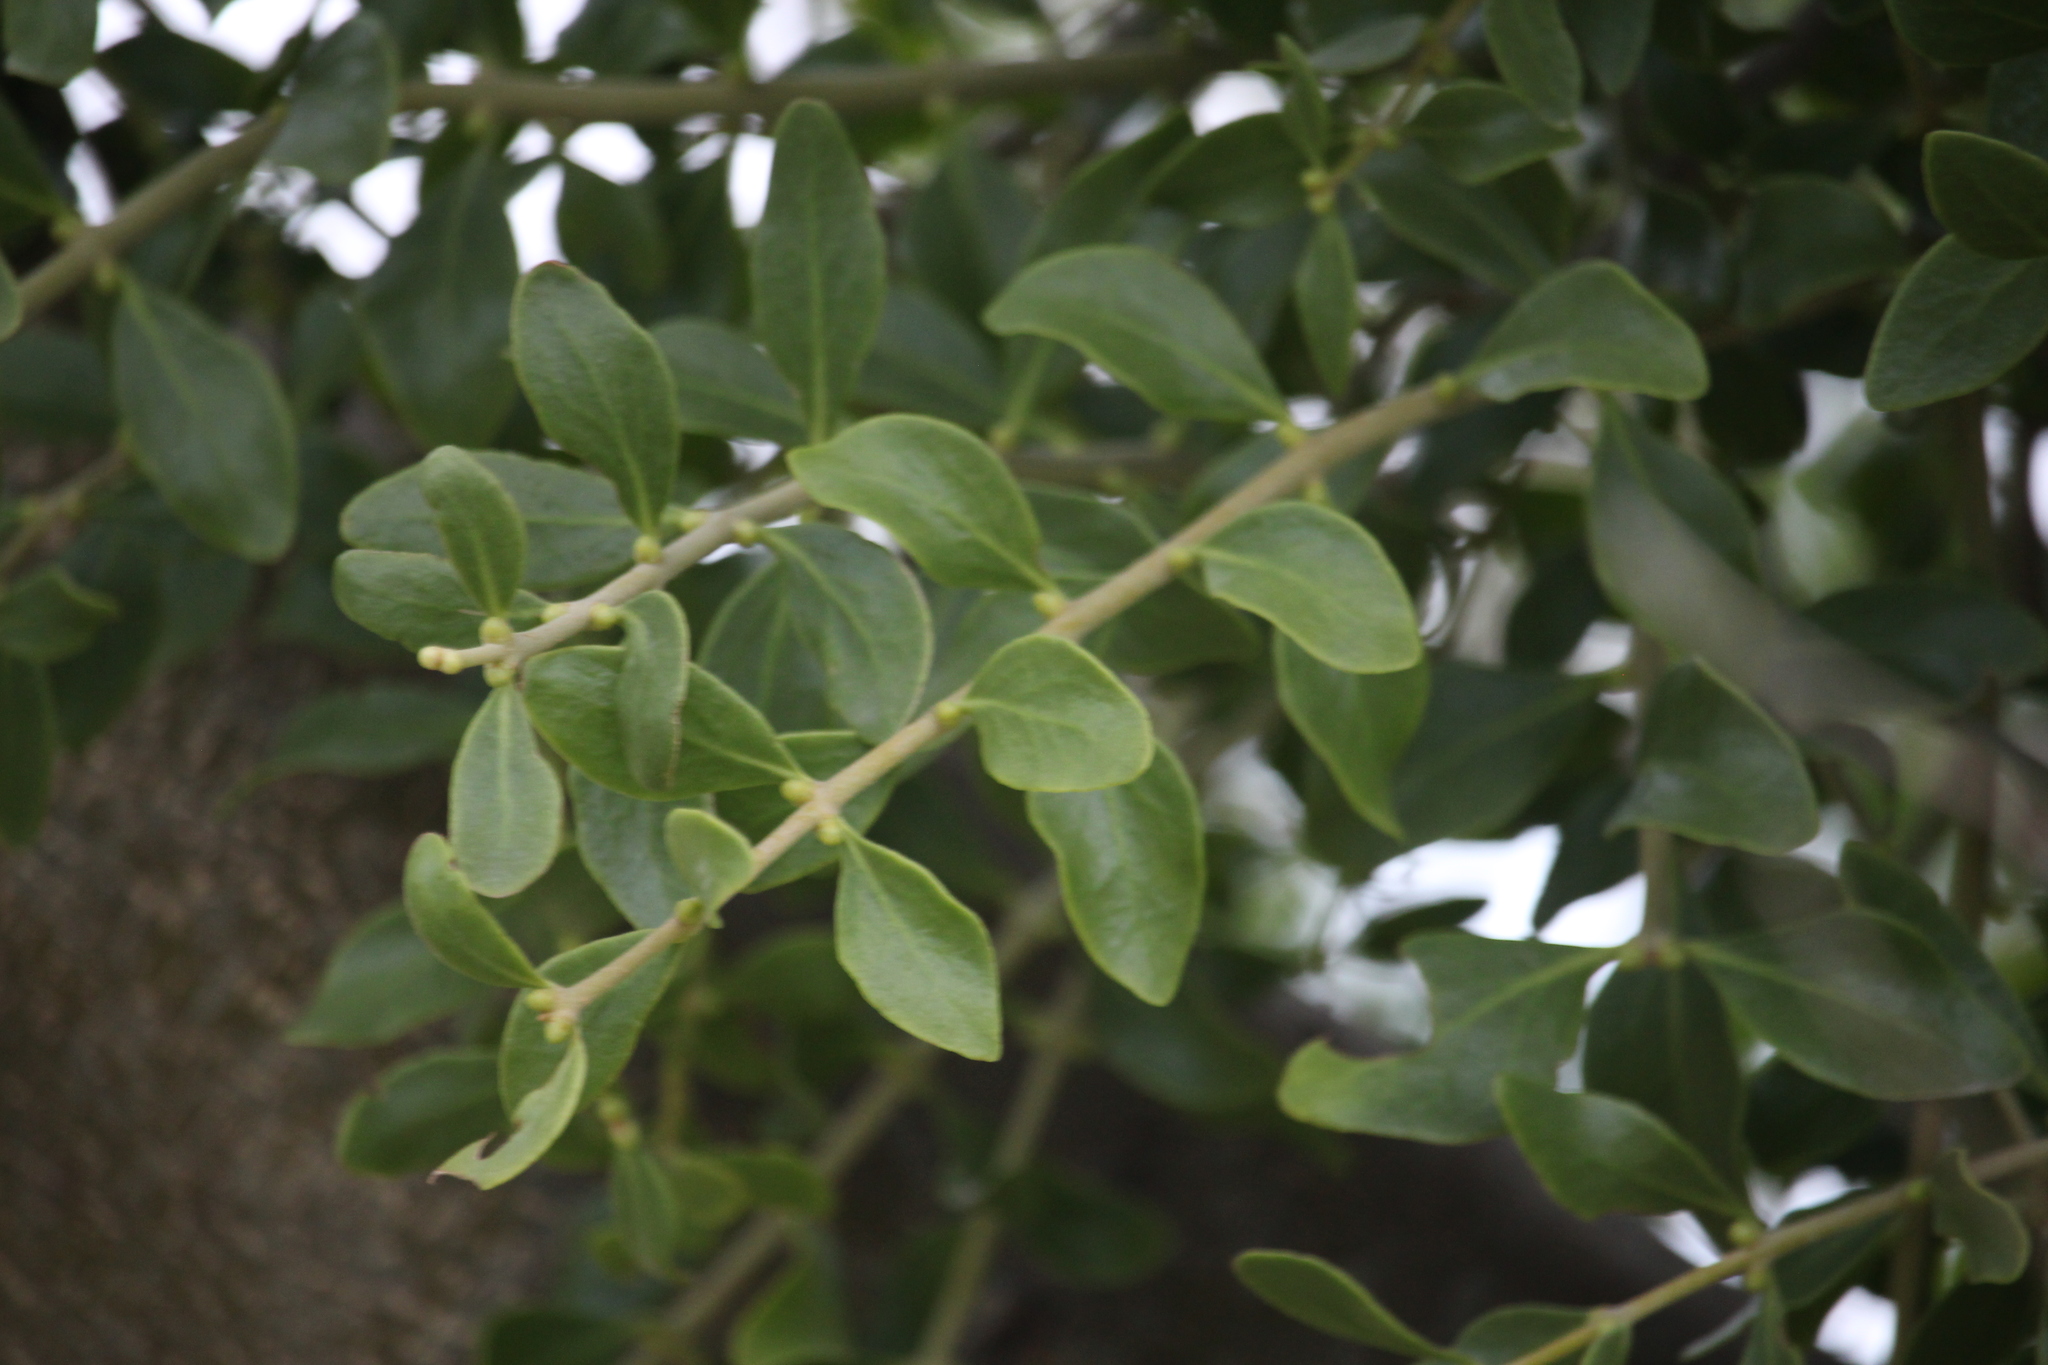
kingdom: Plantae
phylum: Tracheophyta
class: Magnoliopsida
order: Santalales
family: Loranthaceae
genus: Tupeia
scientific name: Tupeia antarctica
